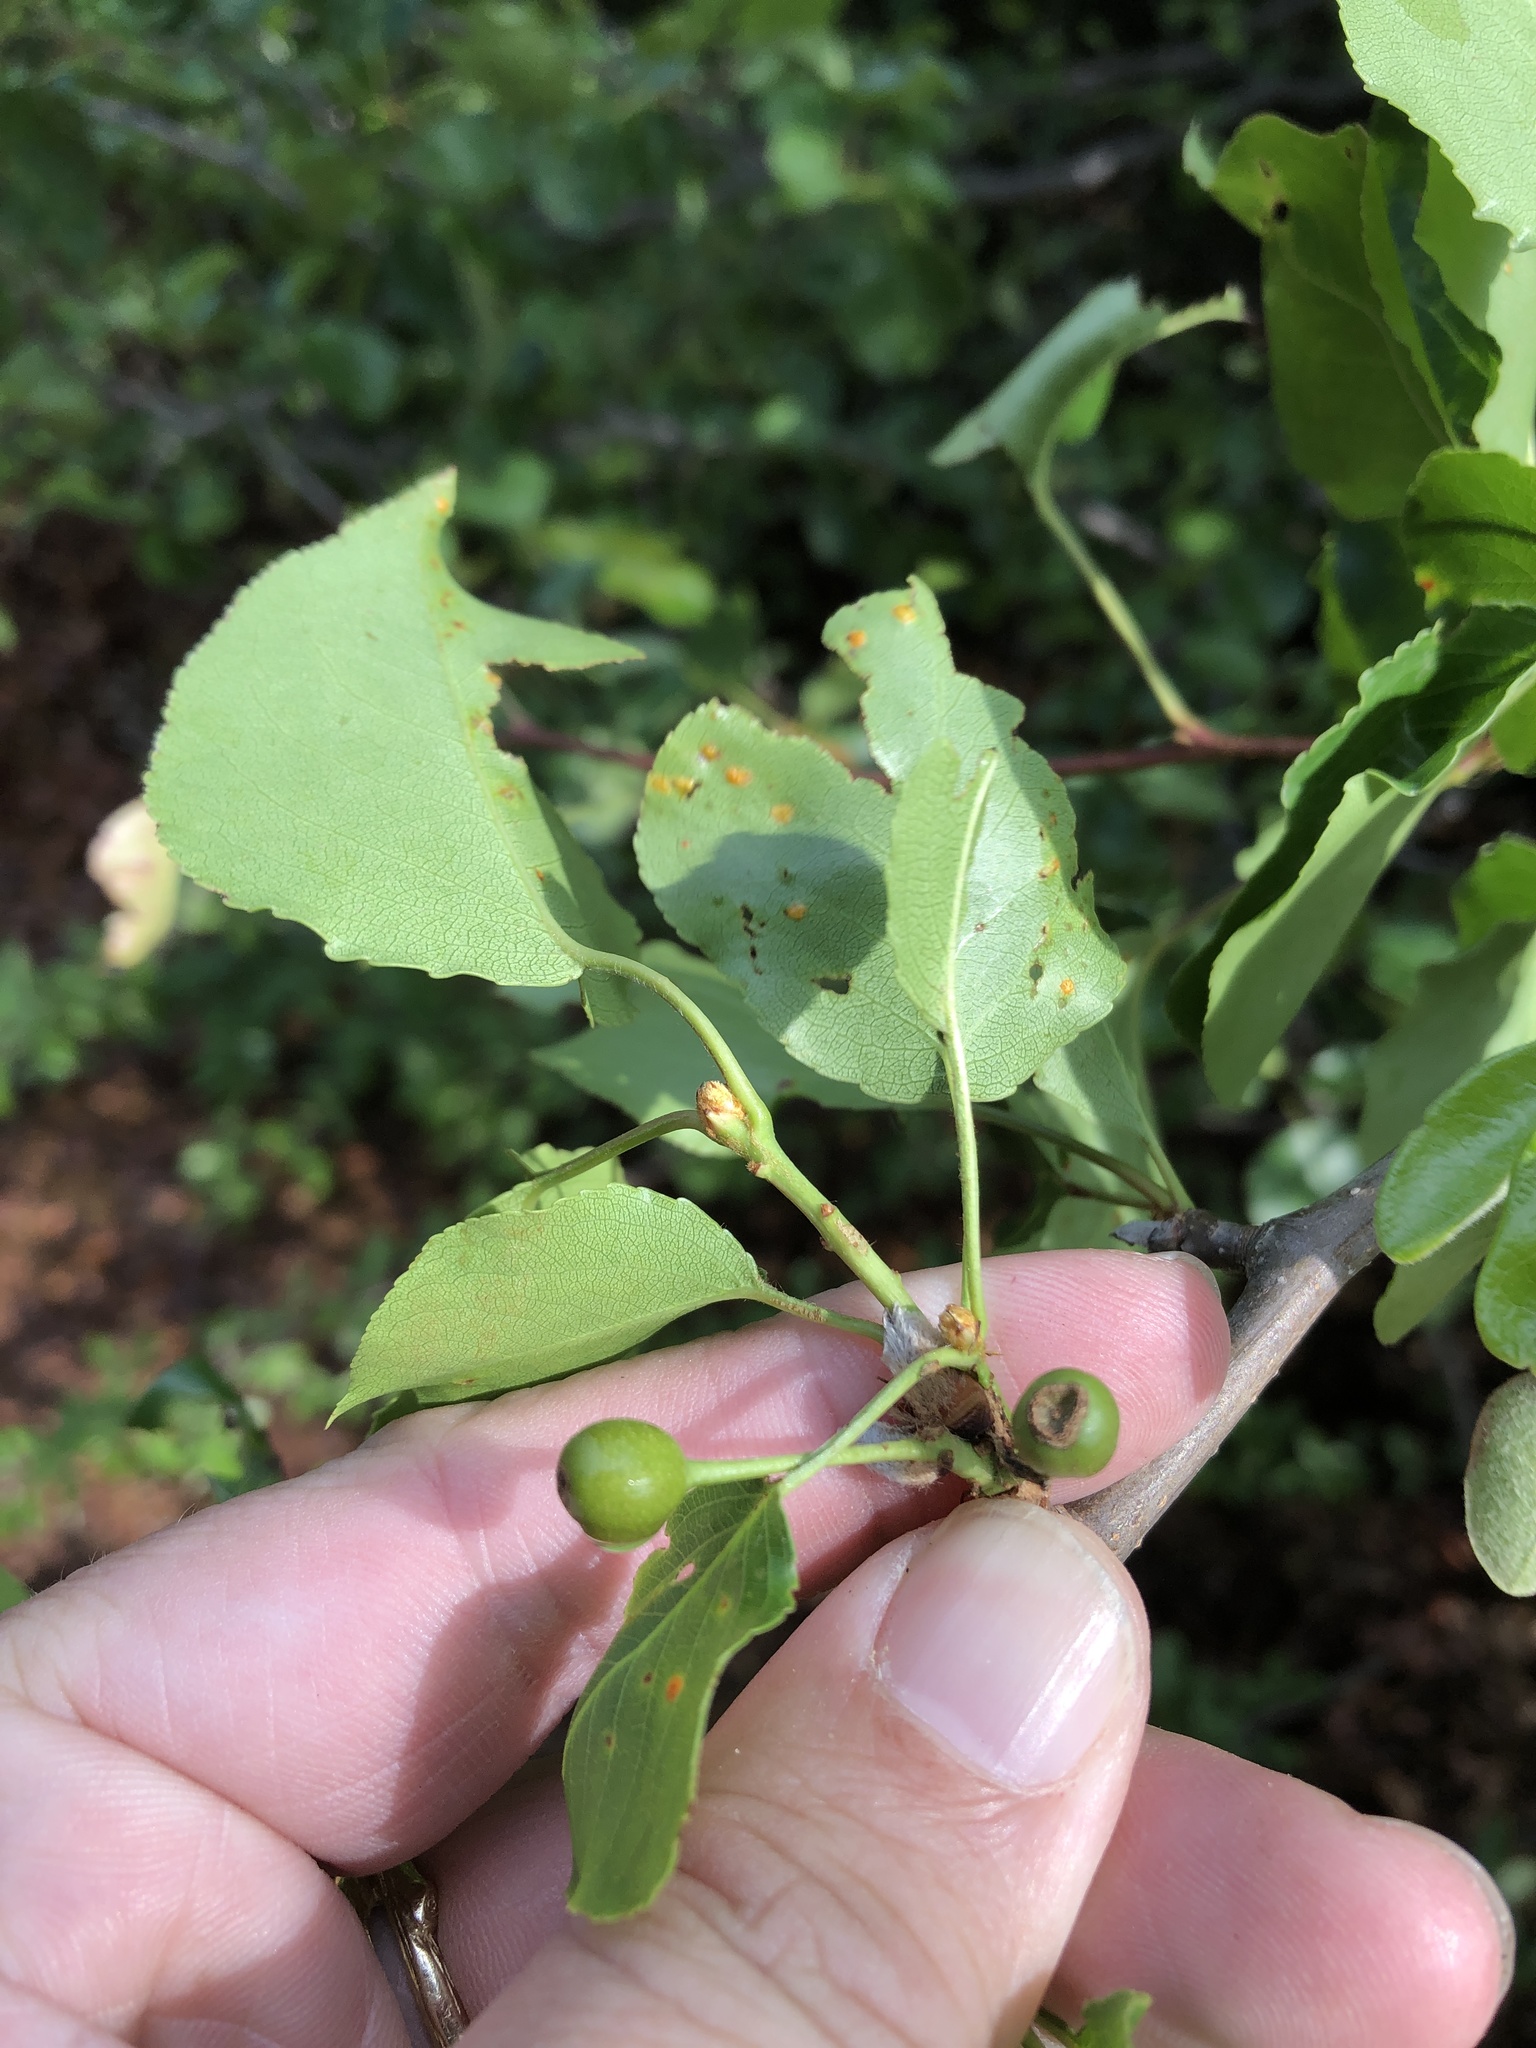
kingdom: Plantae
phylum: Tracheophyta
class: Magnoliopsida
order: Rosales
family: Rosaceae
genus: Pyrus
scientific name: Pyrus calleryana
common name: Callery pear
